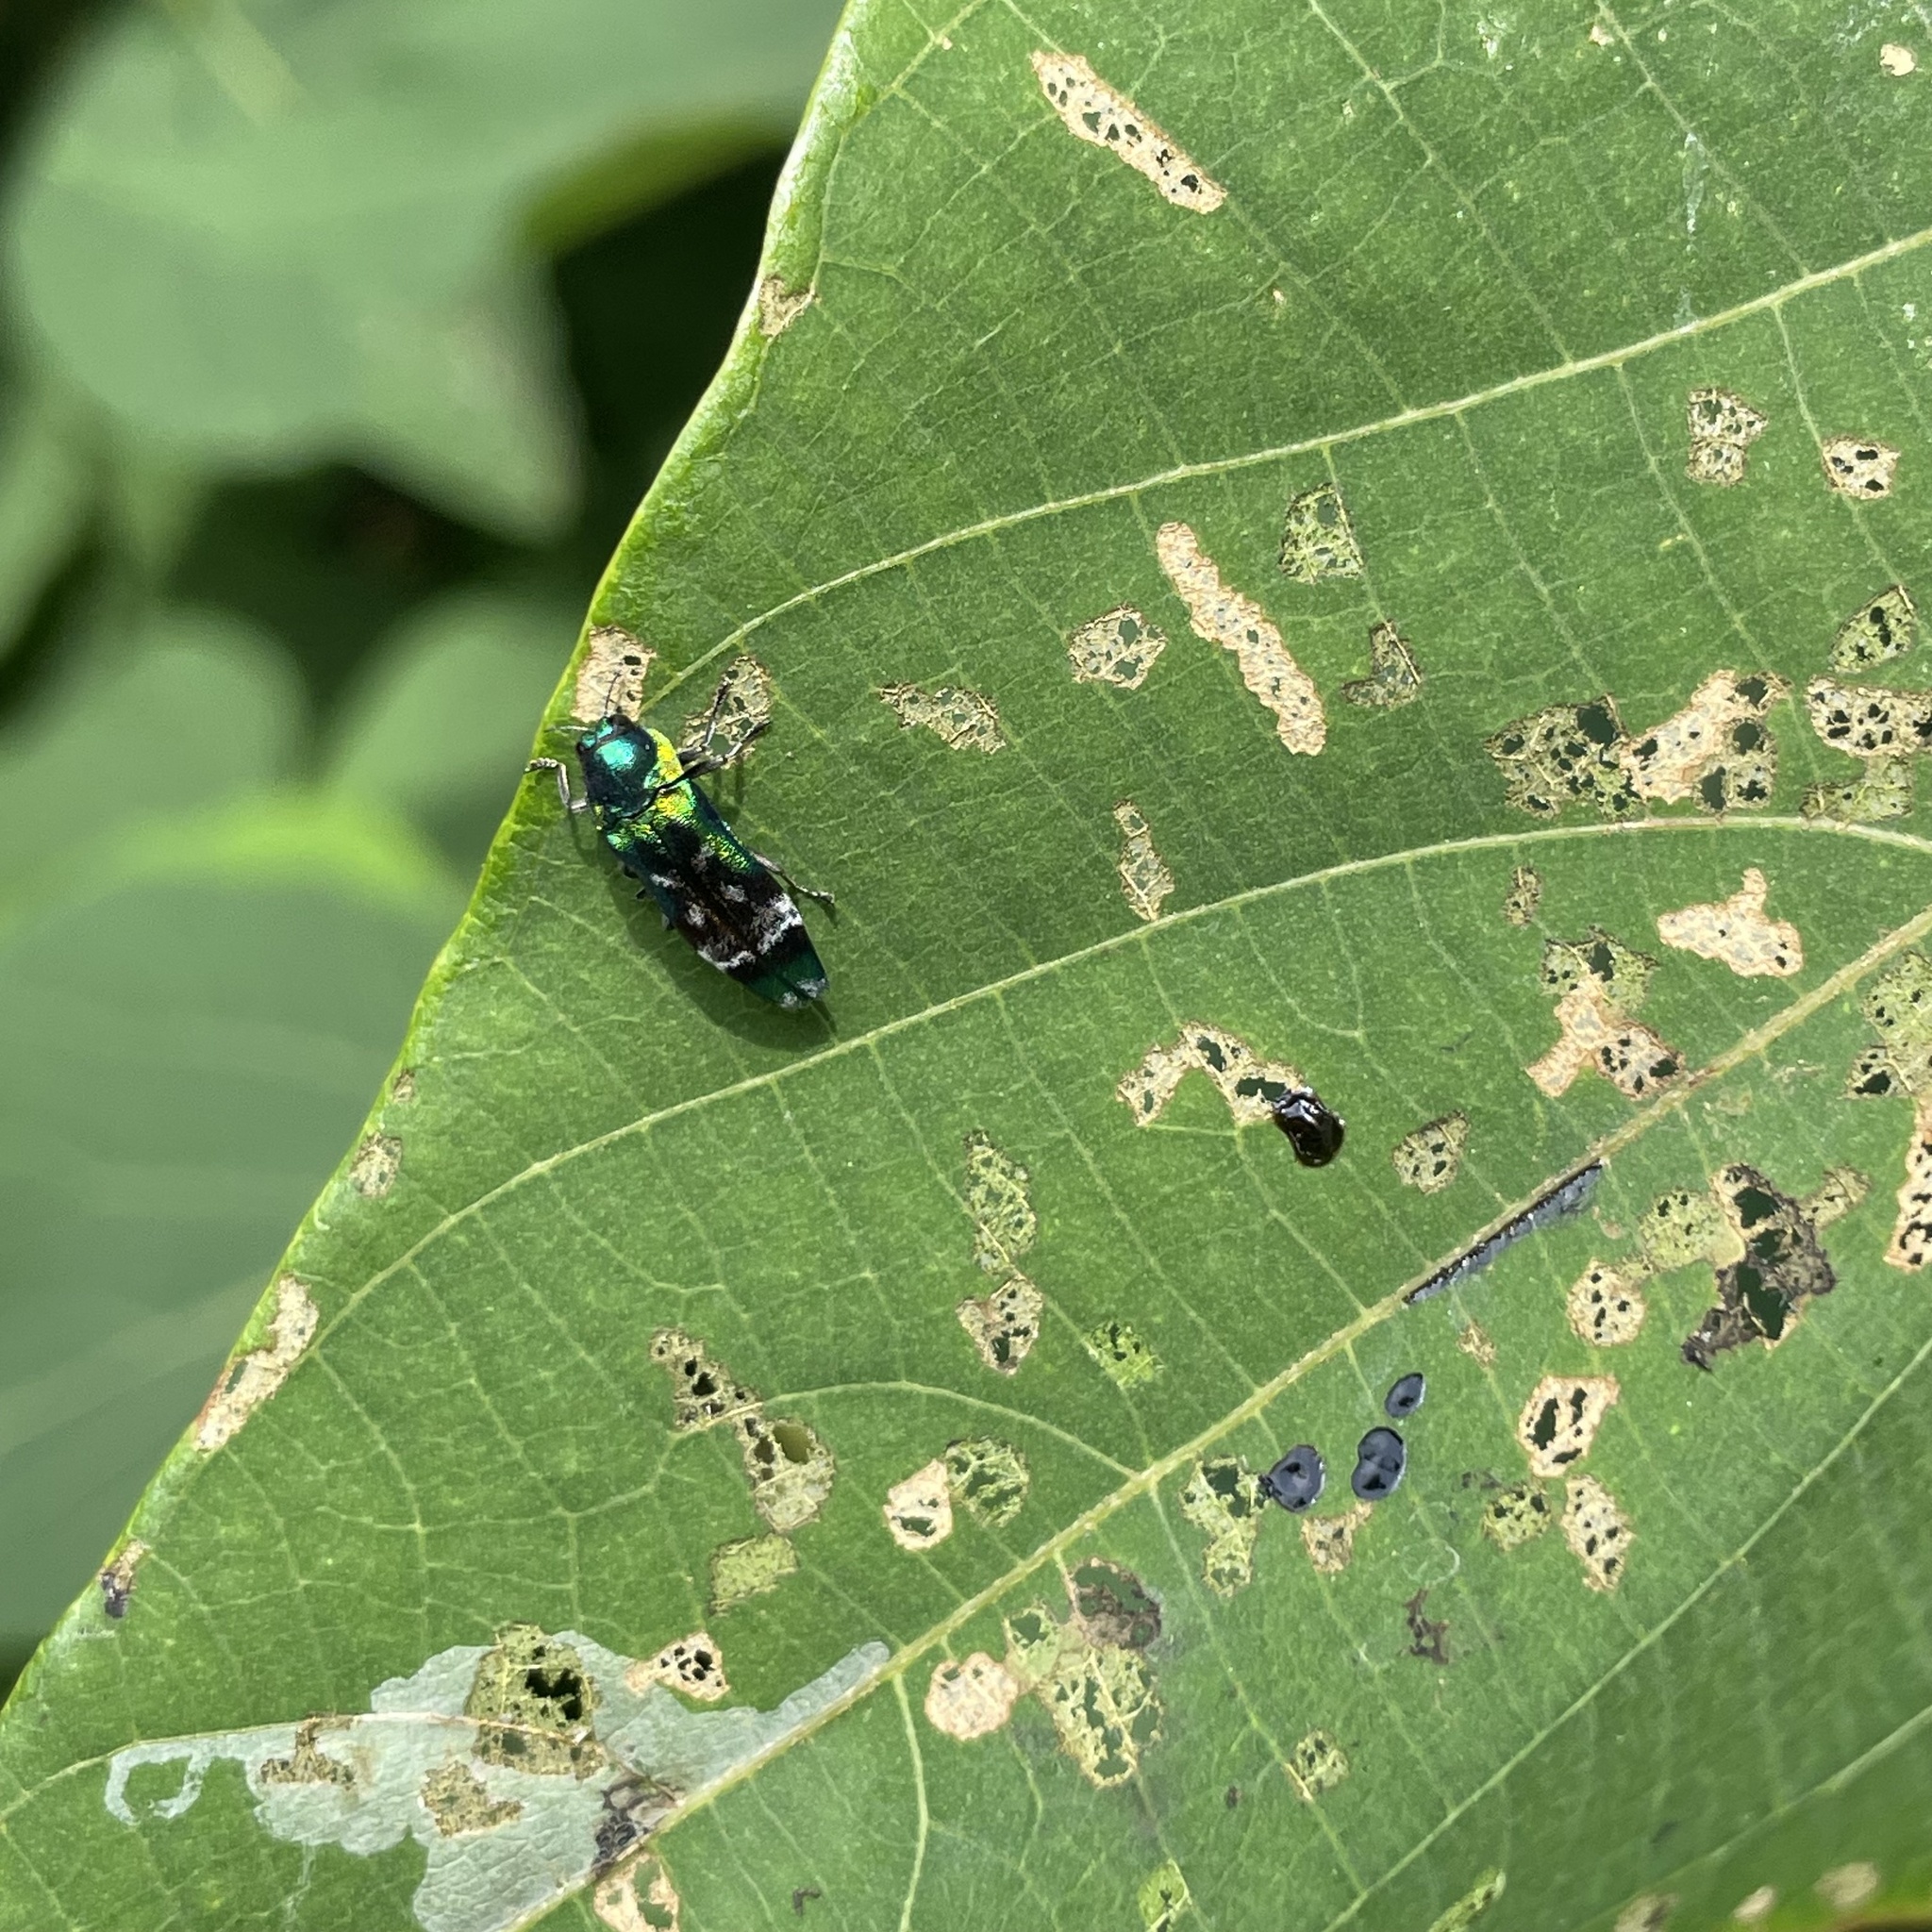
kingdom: Animalia
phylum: Arthropoda
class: Insecta
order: Coleoptera
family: Buprestidae
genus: Coraebus
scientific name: Coraebus hastanus
